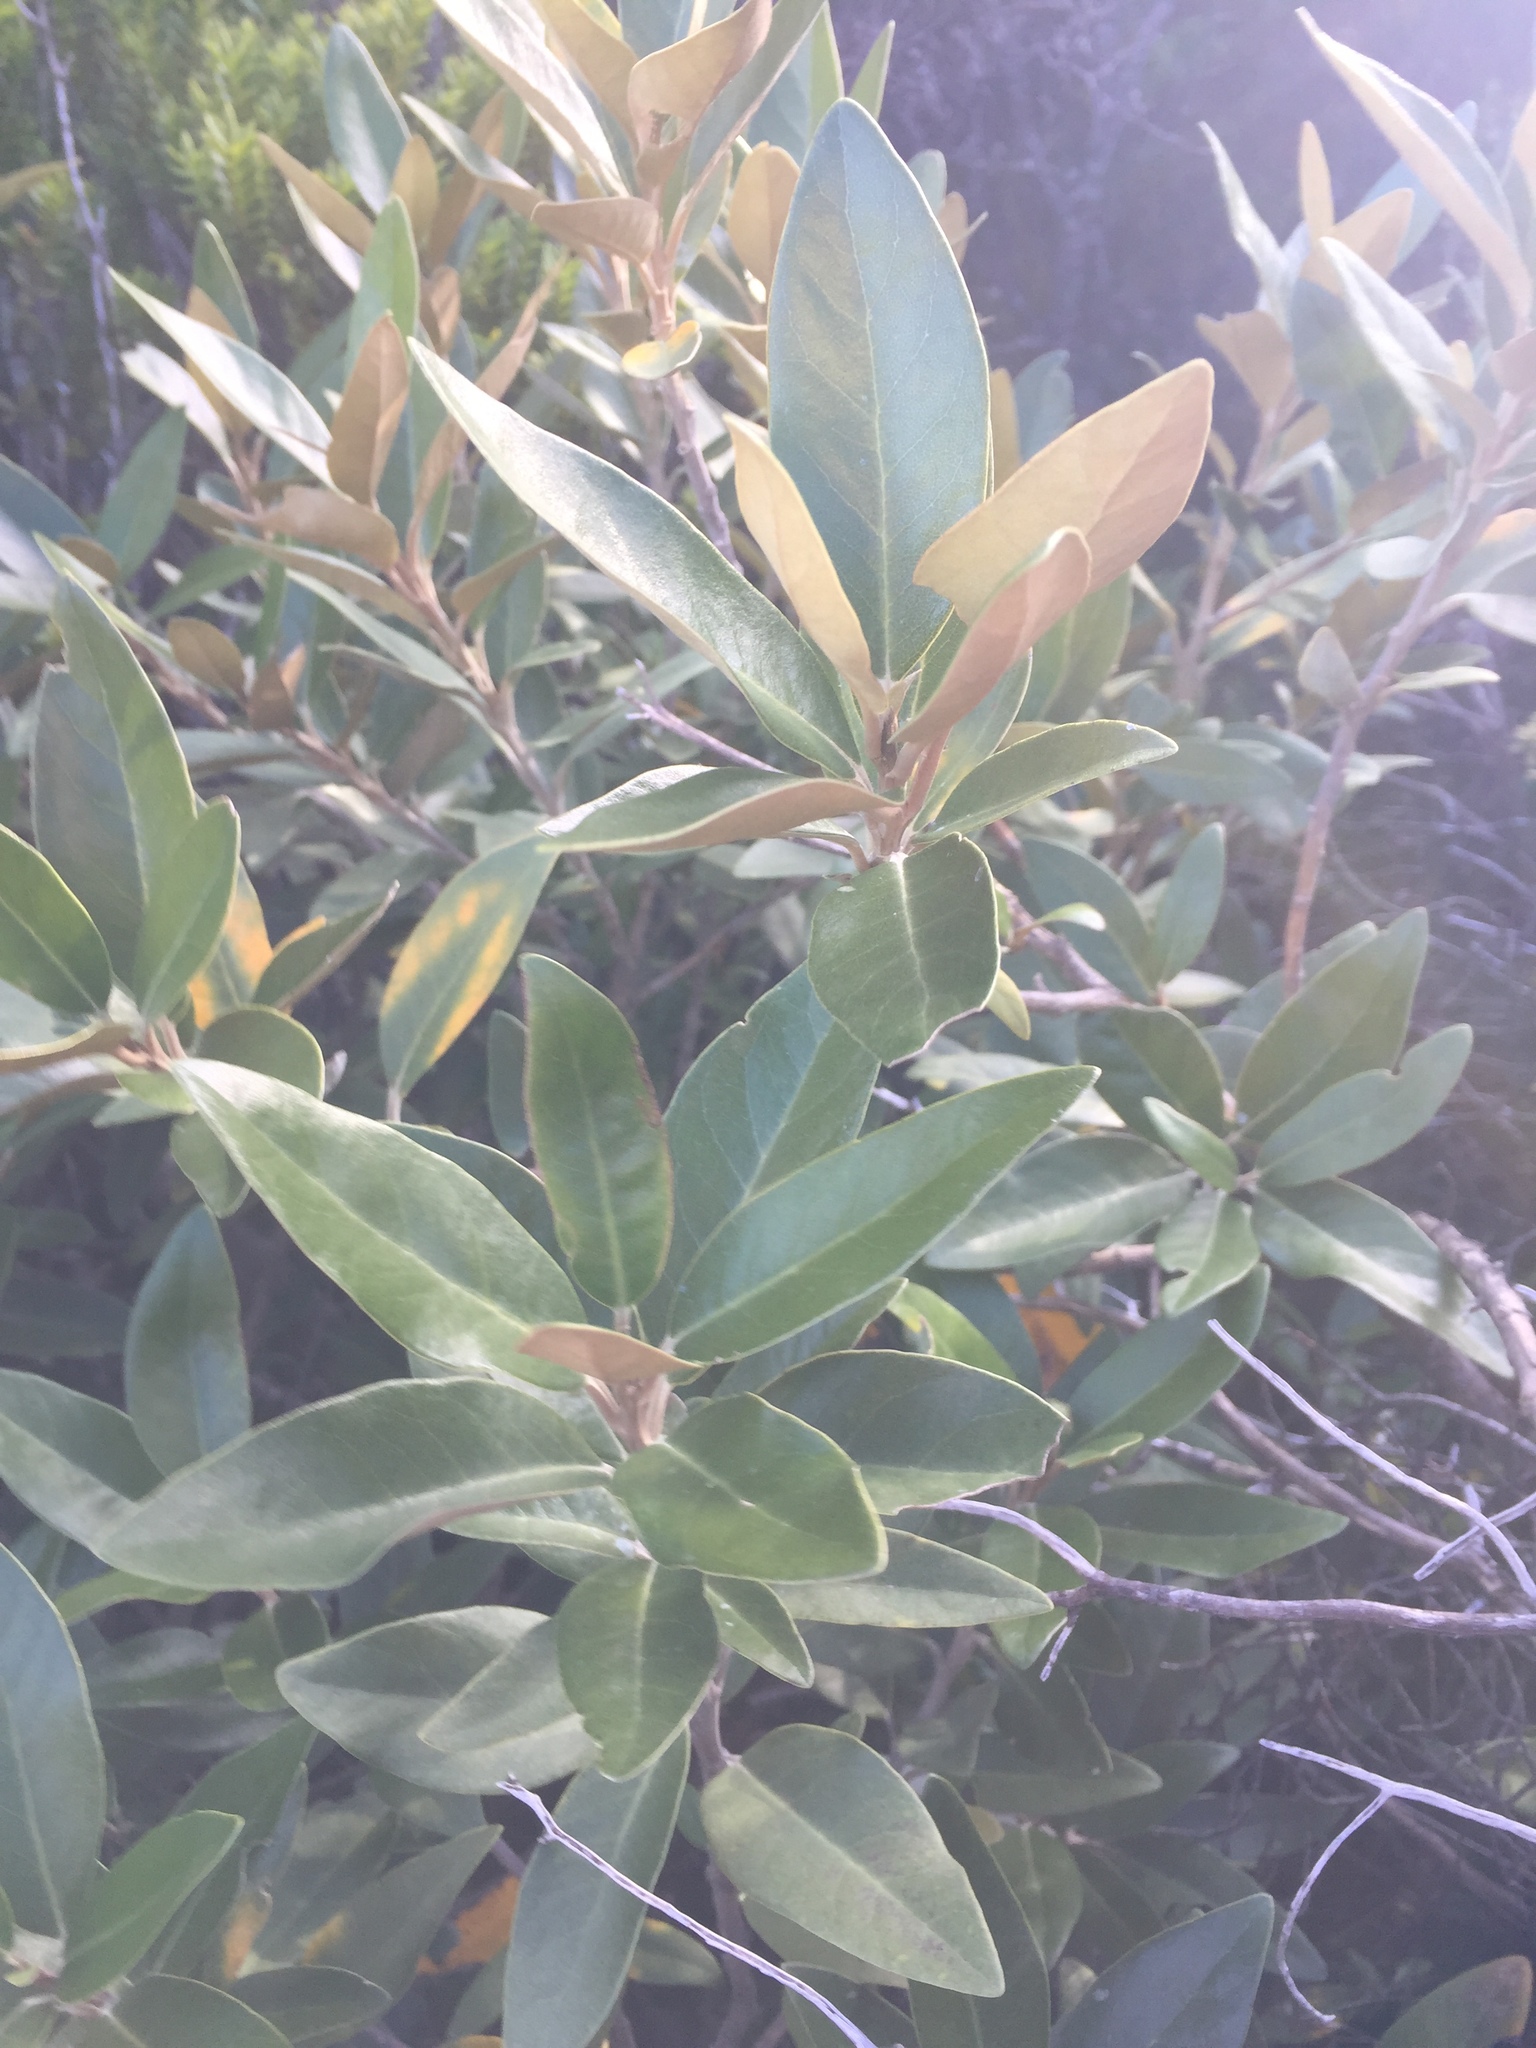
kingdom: Plantae
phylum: Tracheophyta
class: Magnoliopsida
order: Asterales
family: Asteraceae
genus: Olearia
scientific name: Olearia avicenniifolia
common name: Mangrove-leaf daisybush
